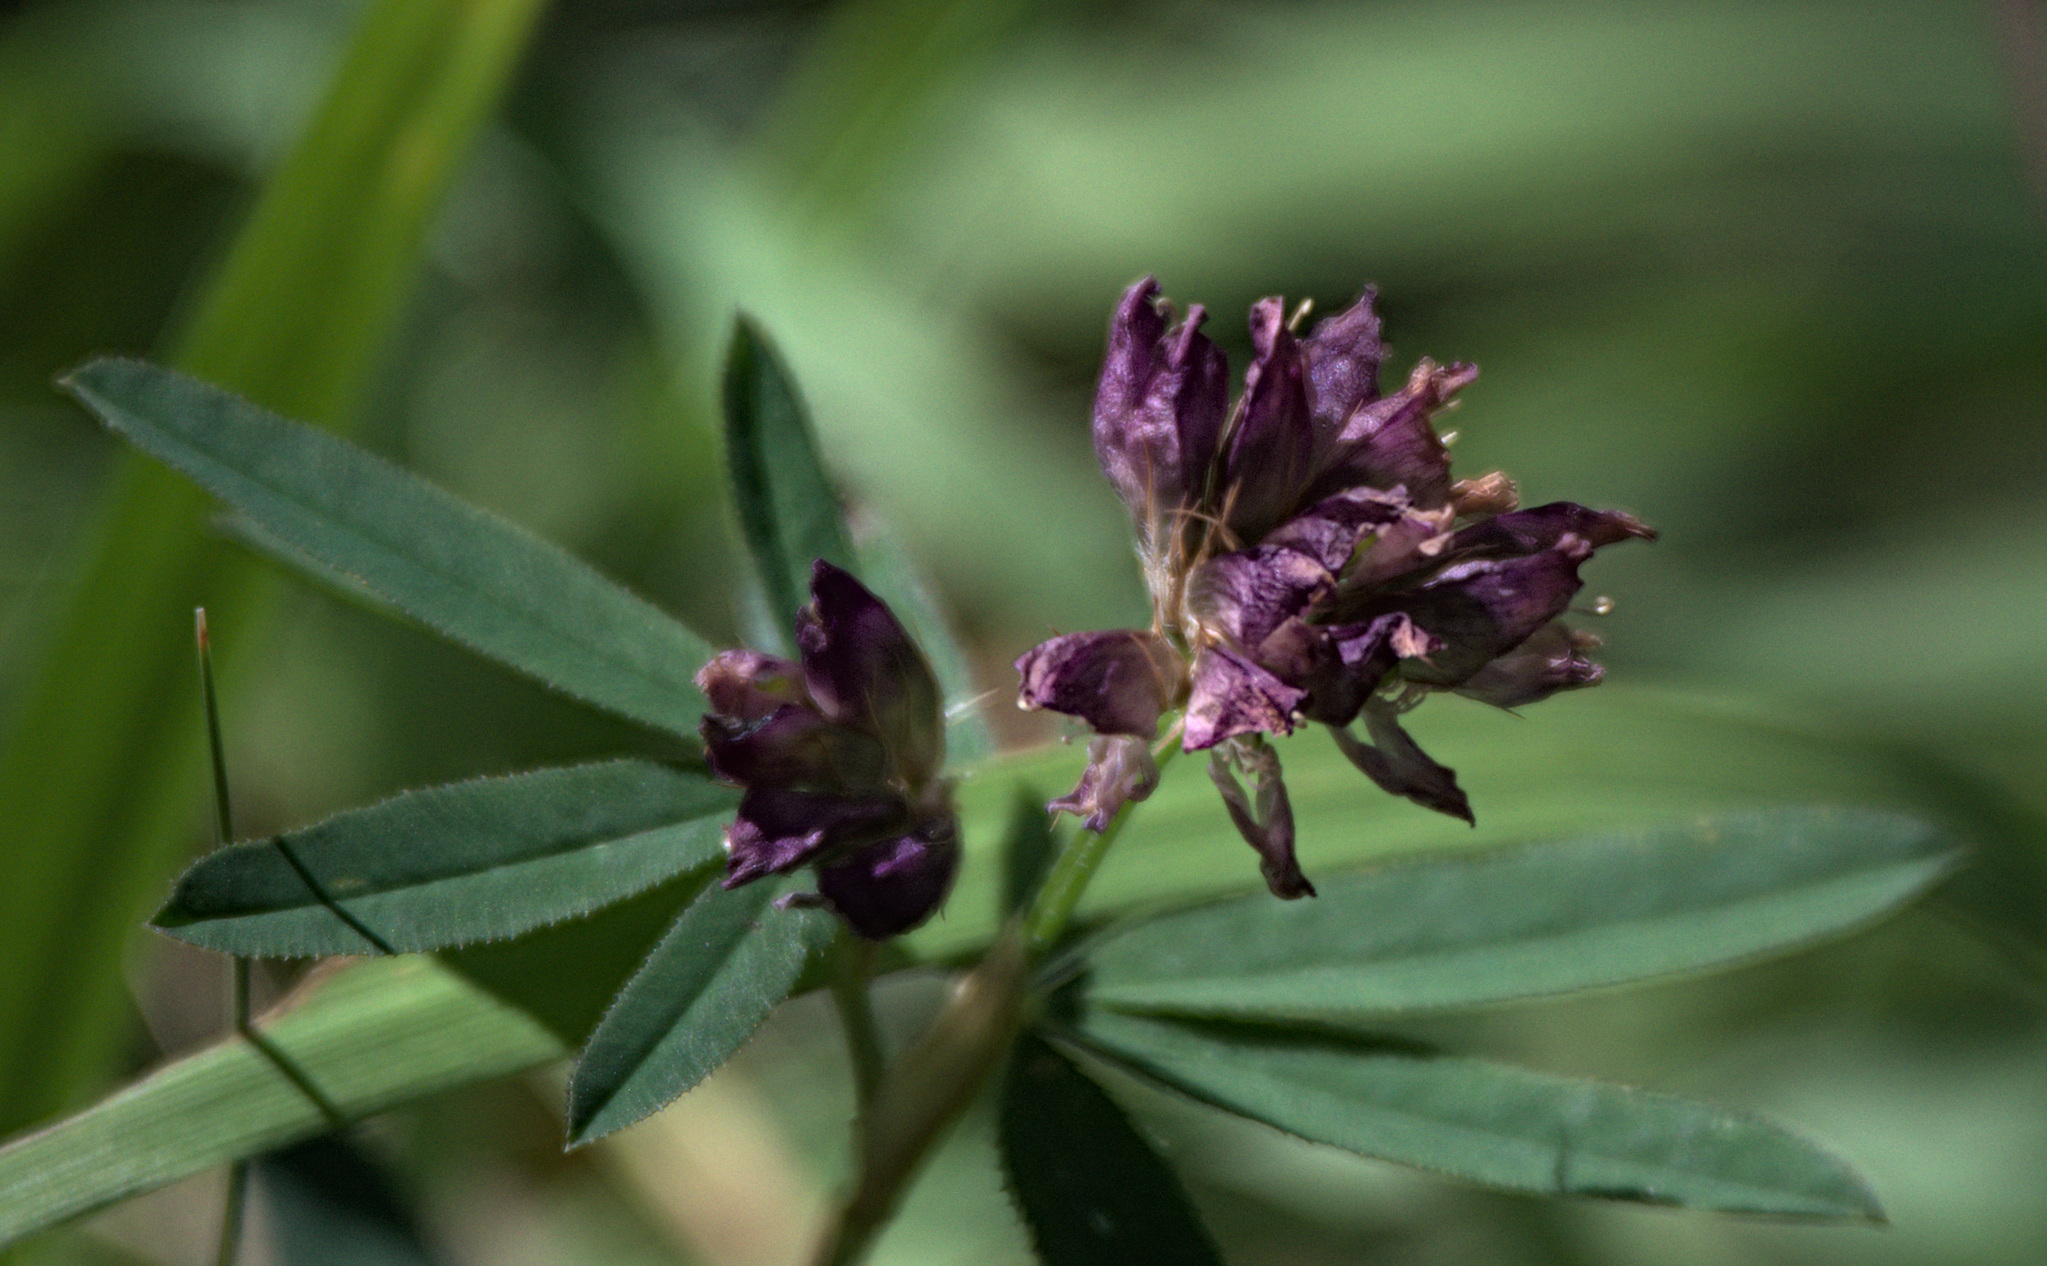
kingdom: Plantae
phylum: Tracheophyta
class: Magnoliopsida
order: Fabales
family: Fabaceae
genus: Trifolium
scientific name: Trifolium lupinaster
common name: Lupine clover
